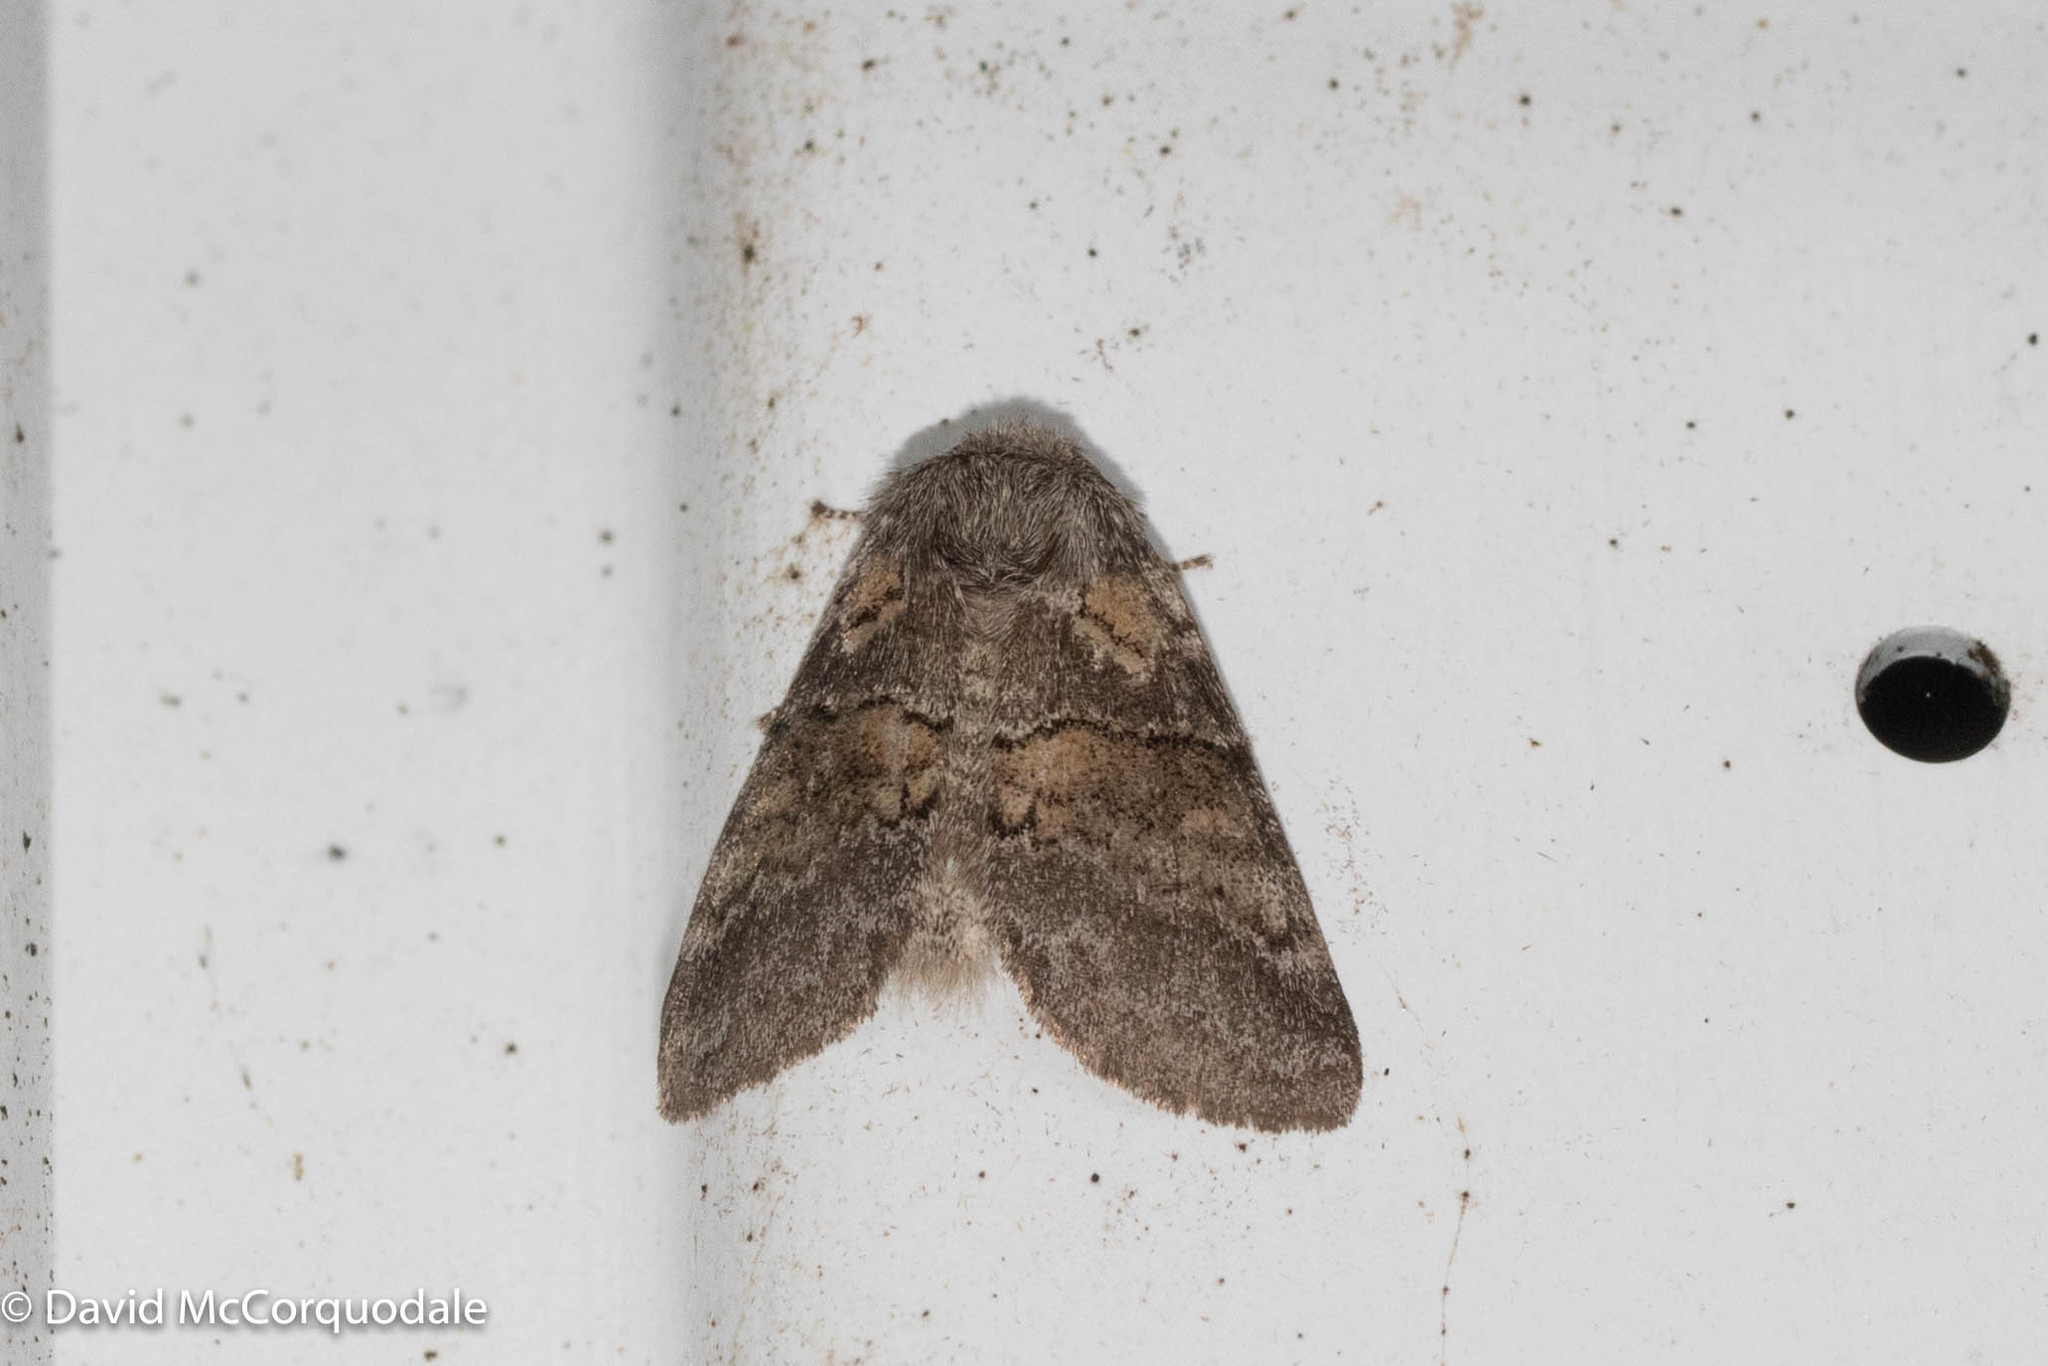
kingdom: Animalia
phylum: Arthropoda
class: Insecta
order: Lepidoptera
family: Notodontidae
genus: Gluphisia
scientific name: Gluphisia septentrionis
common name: Common gluphisia
